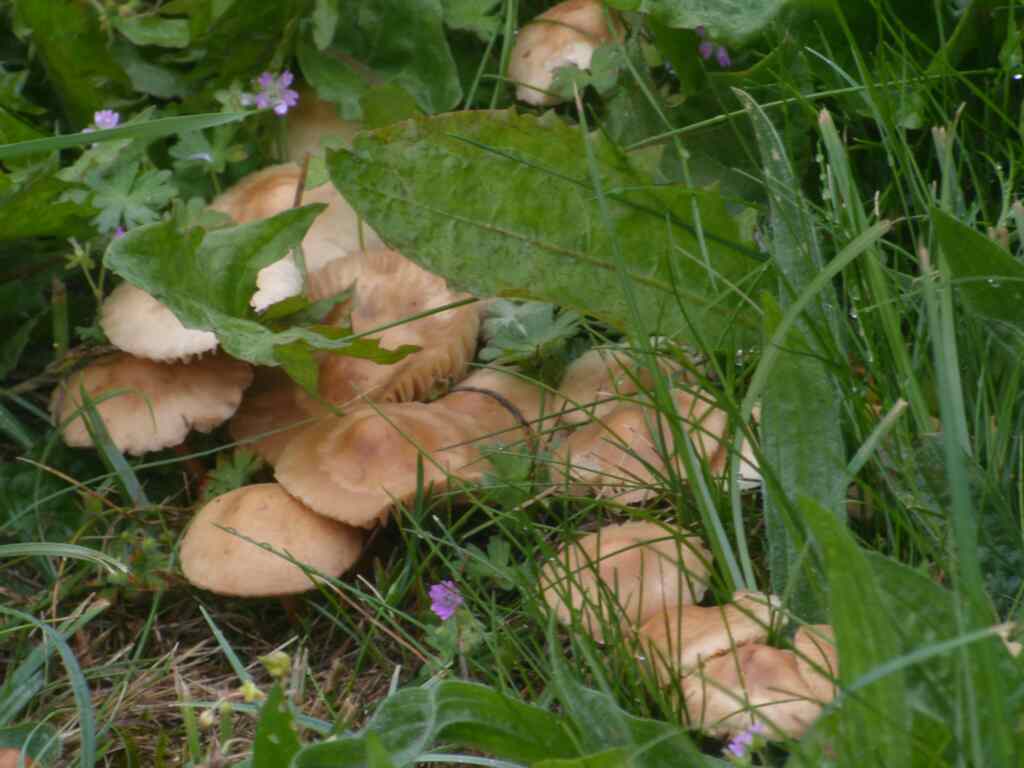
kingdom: Fungi
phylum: Basidiomycota
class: Agaricomycetes
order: Agaricales
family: Marasmiaceae
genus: Marasmius
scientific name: Marasmius oreades
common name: Fairy ring champignon
